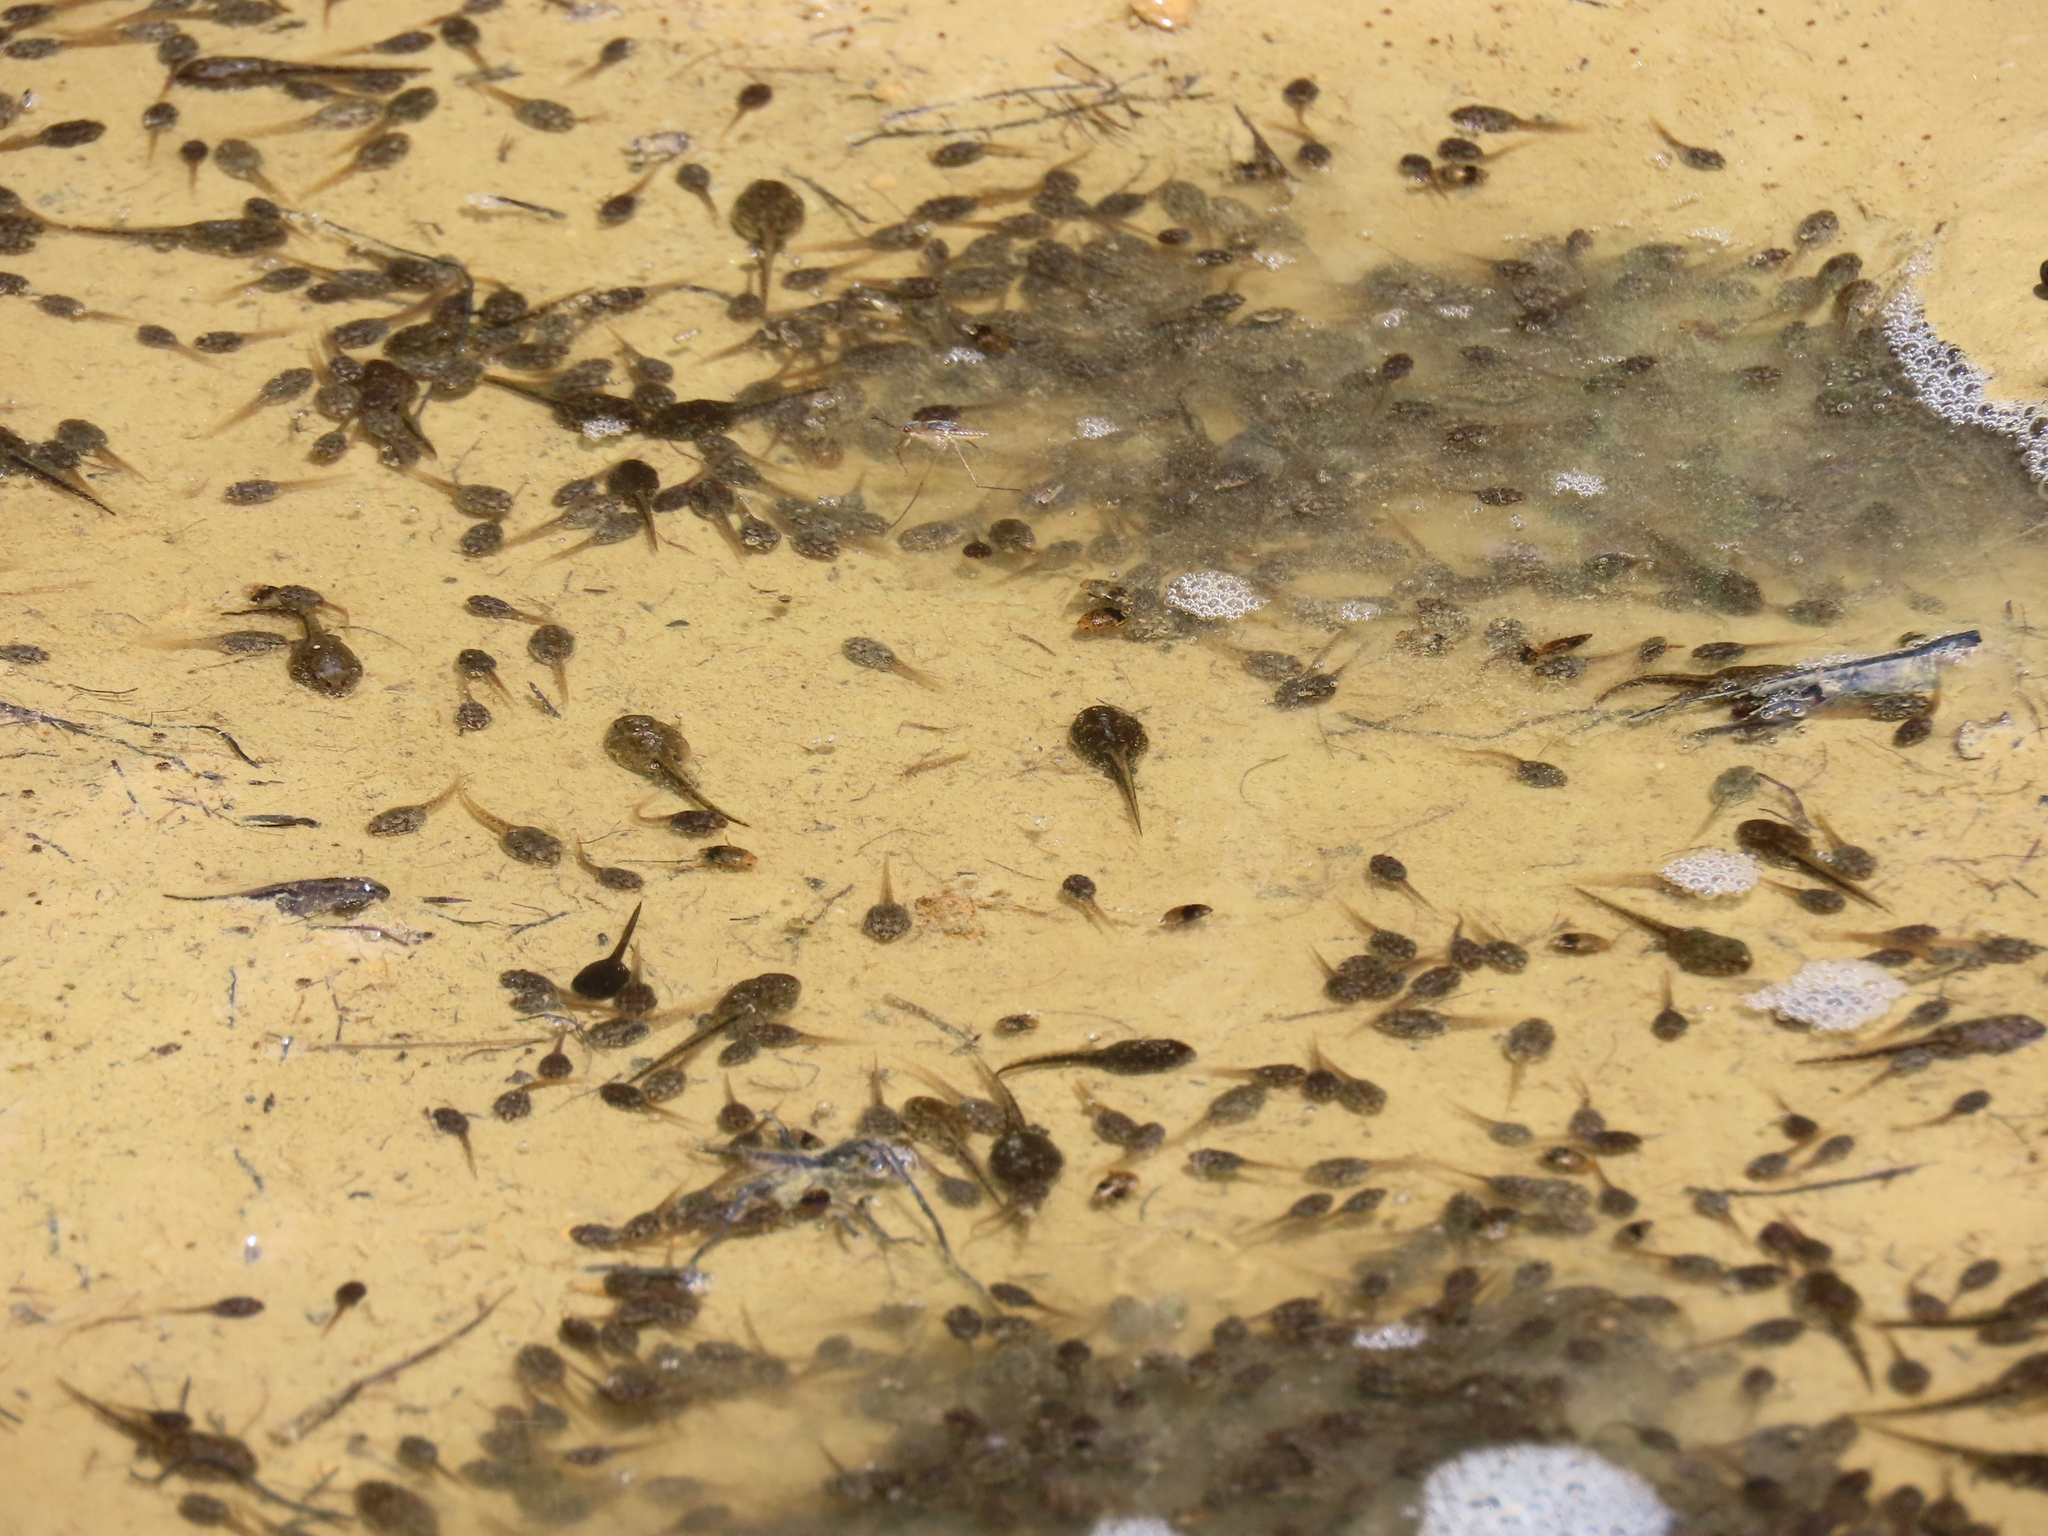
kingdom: Animalia
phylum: Chordata
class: Amphibia
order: Anura
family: Ranidae
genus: Lithobates
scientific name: Lithobates clamitans
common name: Green frog
